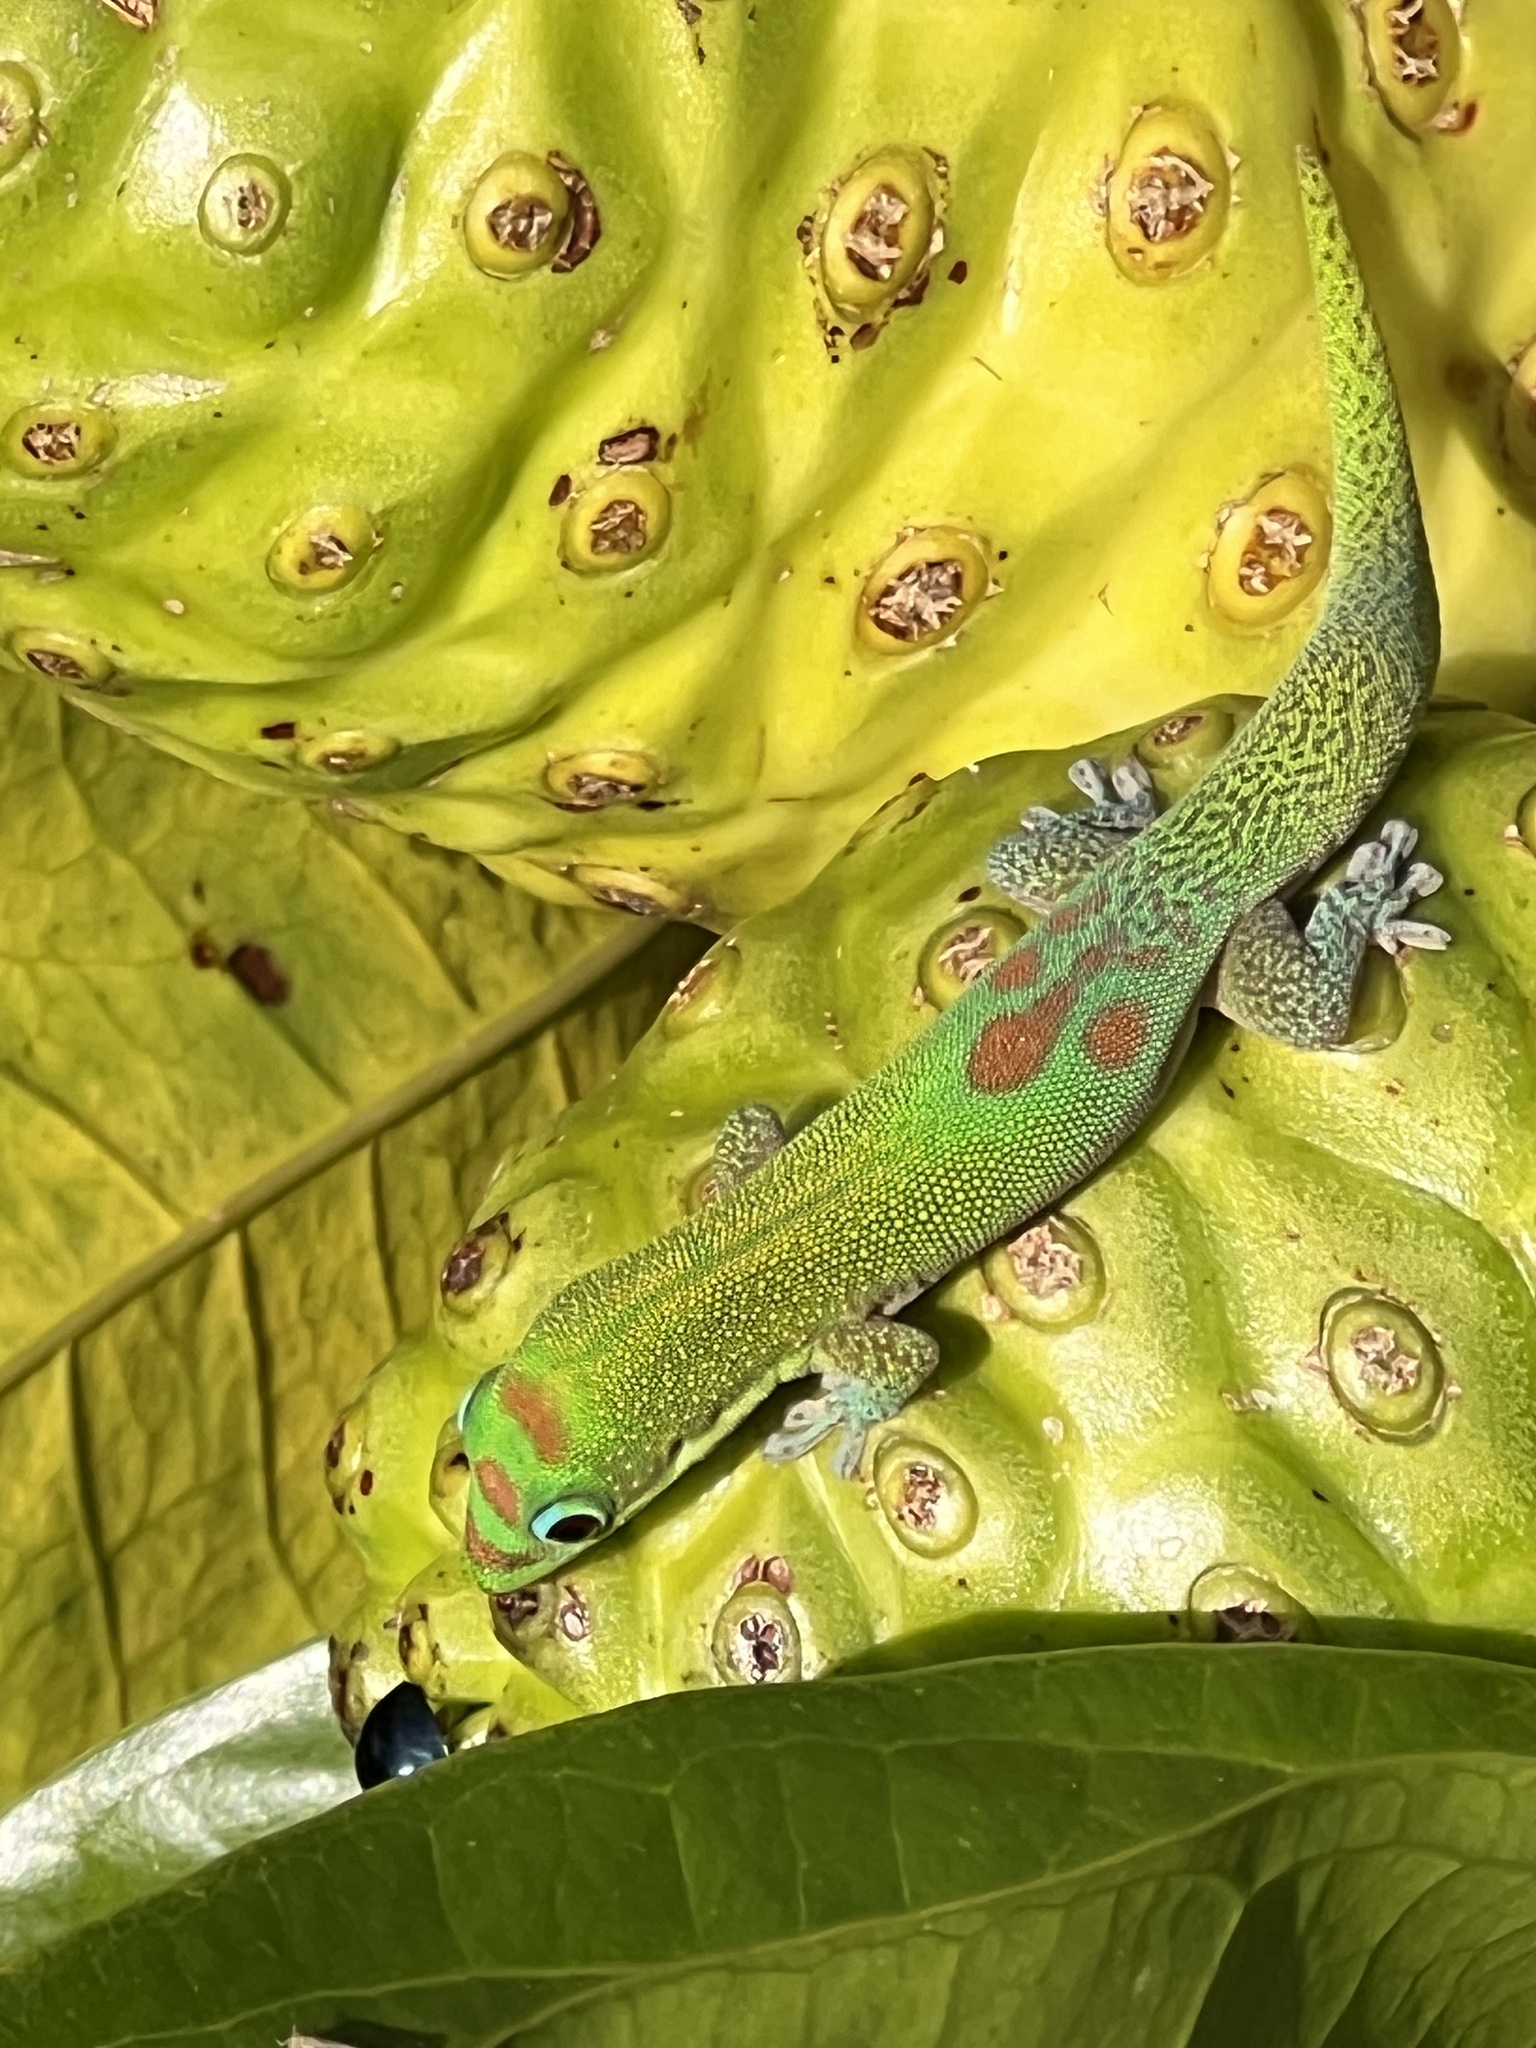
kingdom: Animalia
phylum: Chordata
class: Squamata
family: Gekkonidae
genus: Phelsuma
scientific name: Phelsuma laticauda
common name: Gold dust day gecko
